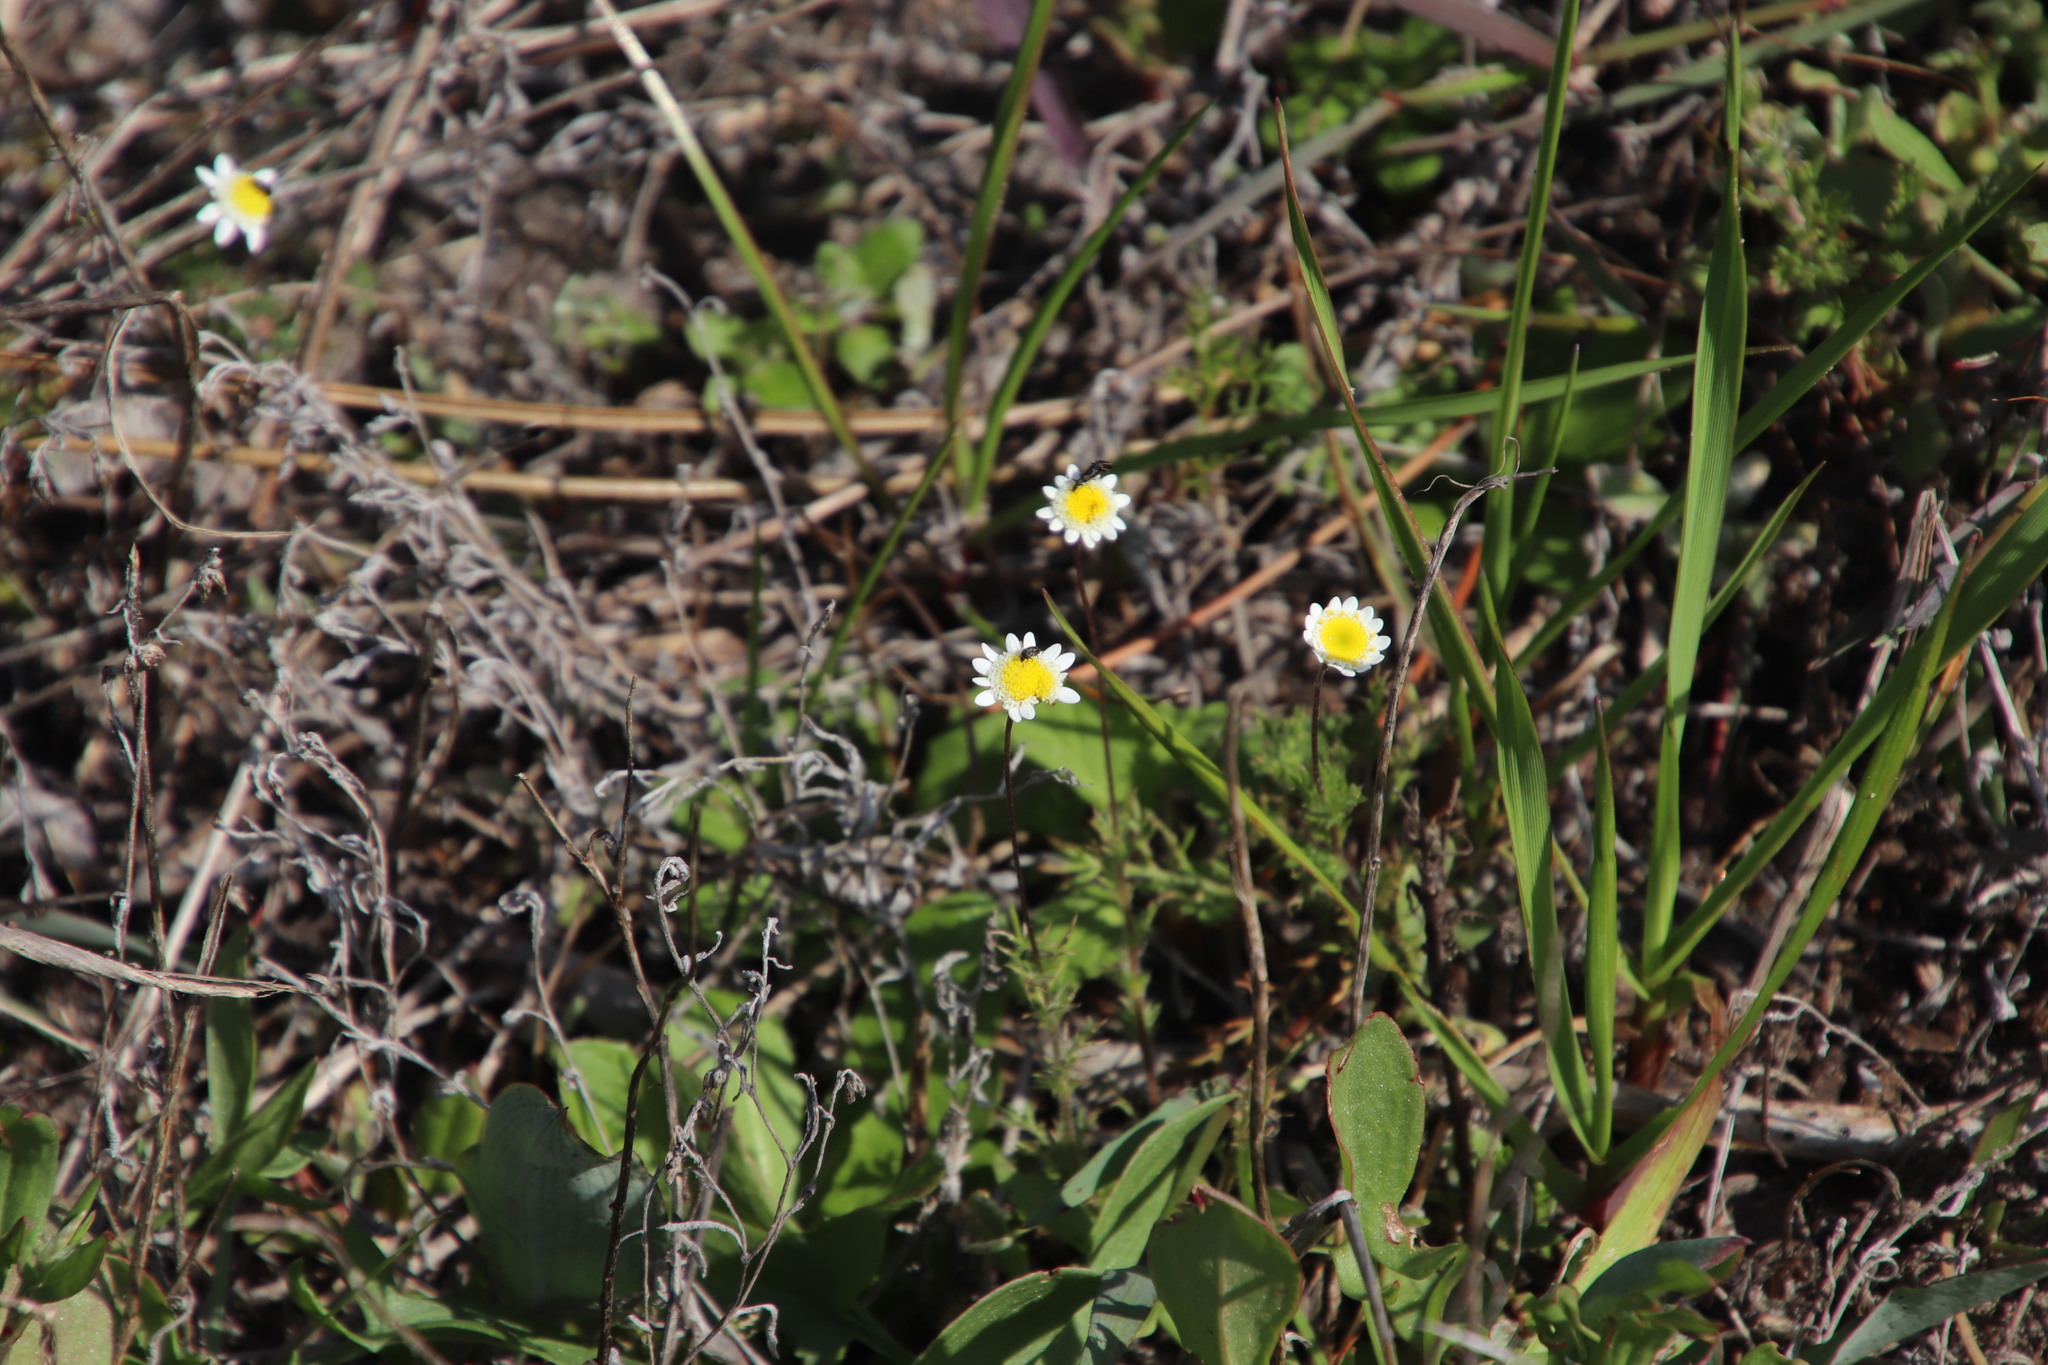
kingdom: Plantae
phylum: Tracheophyta
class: Magnoliopsida
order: Asterales
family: Asteraceae
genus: Cotula
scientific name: Cotula turbinata
